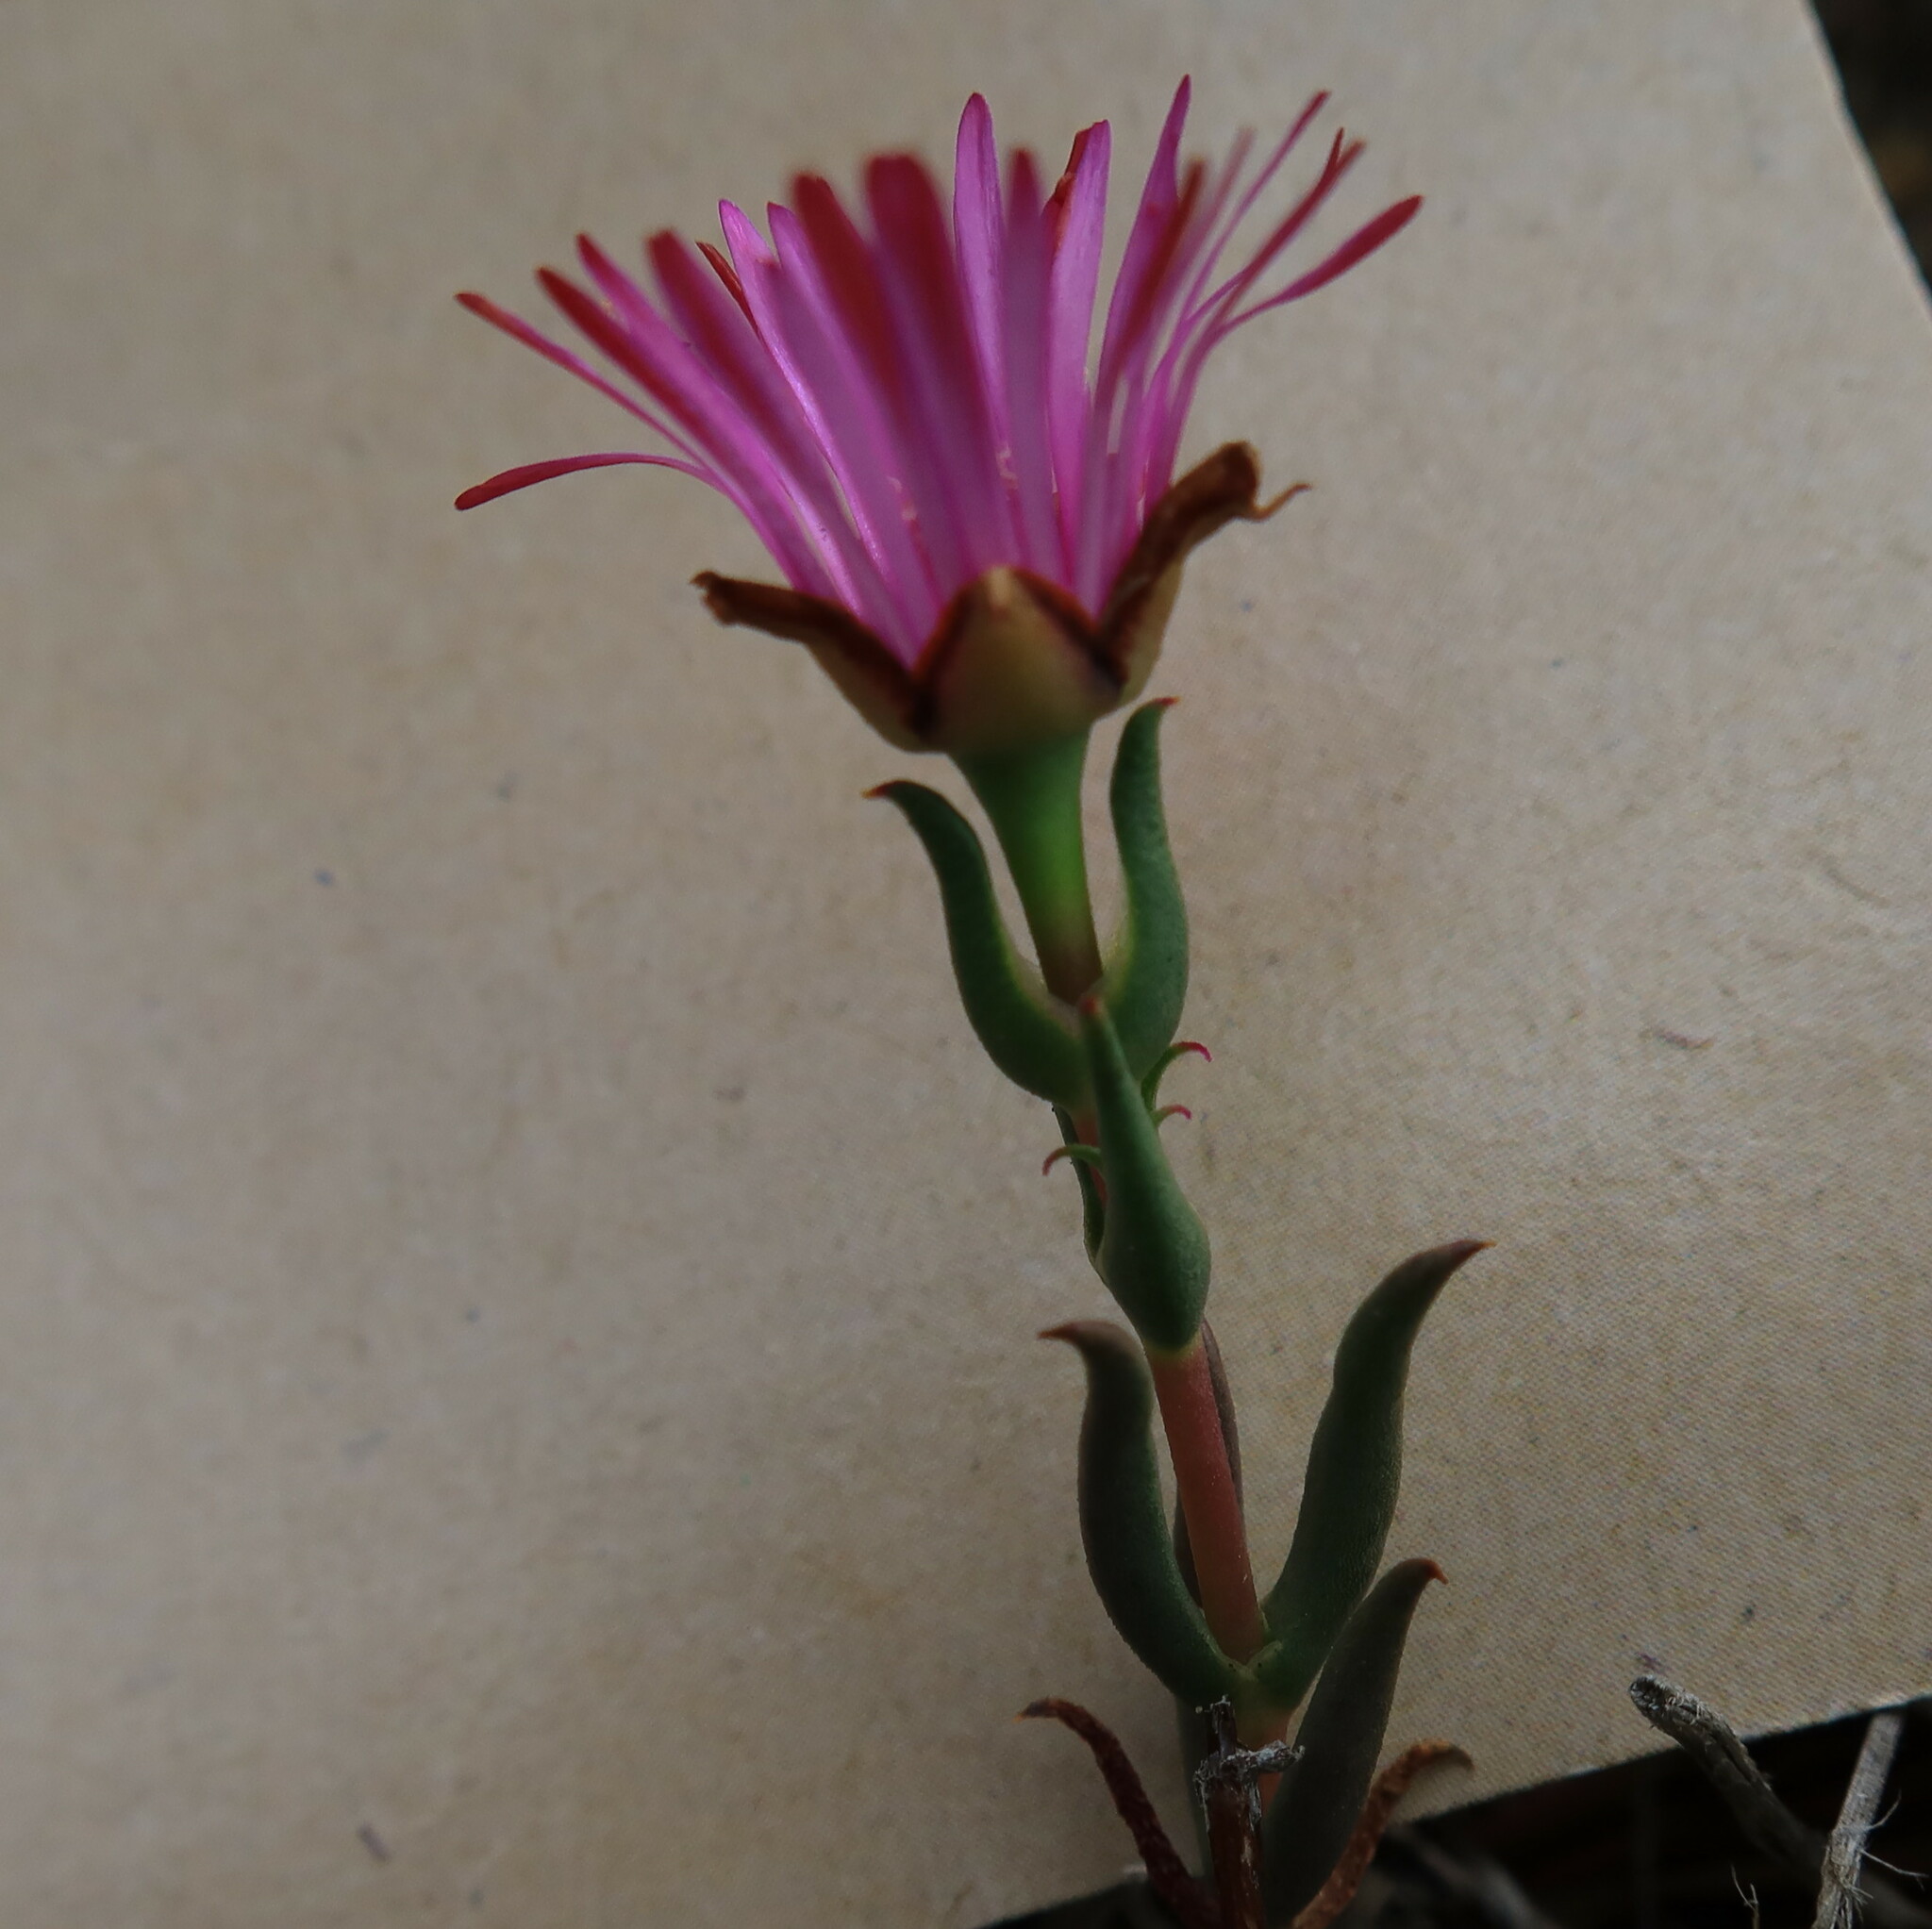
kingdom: Plantae
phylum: Tracheophyta
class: Magnoliopsida
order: Caryophyllales
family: Aizoaceae
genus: Lampranthus
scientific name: Lampranthus aduncus
